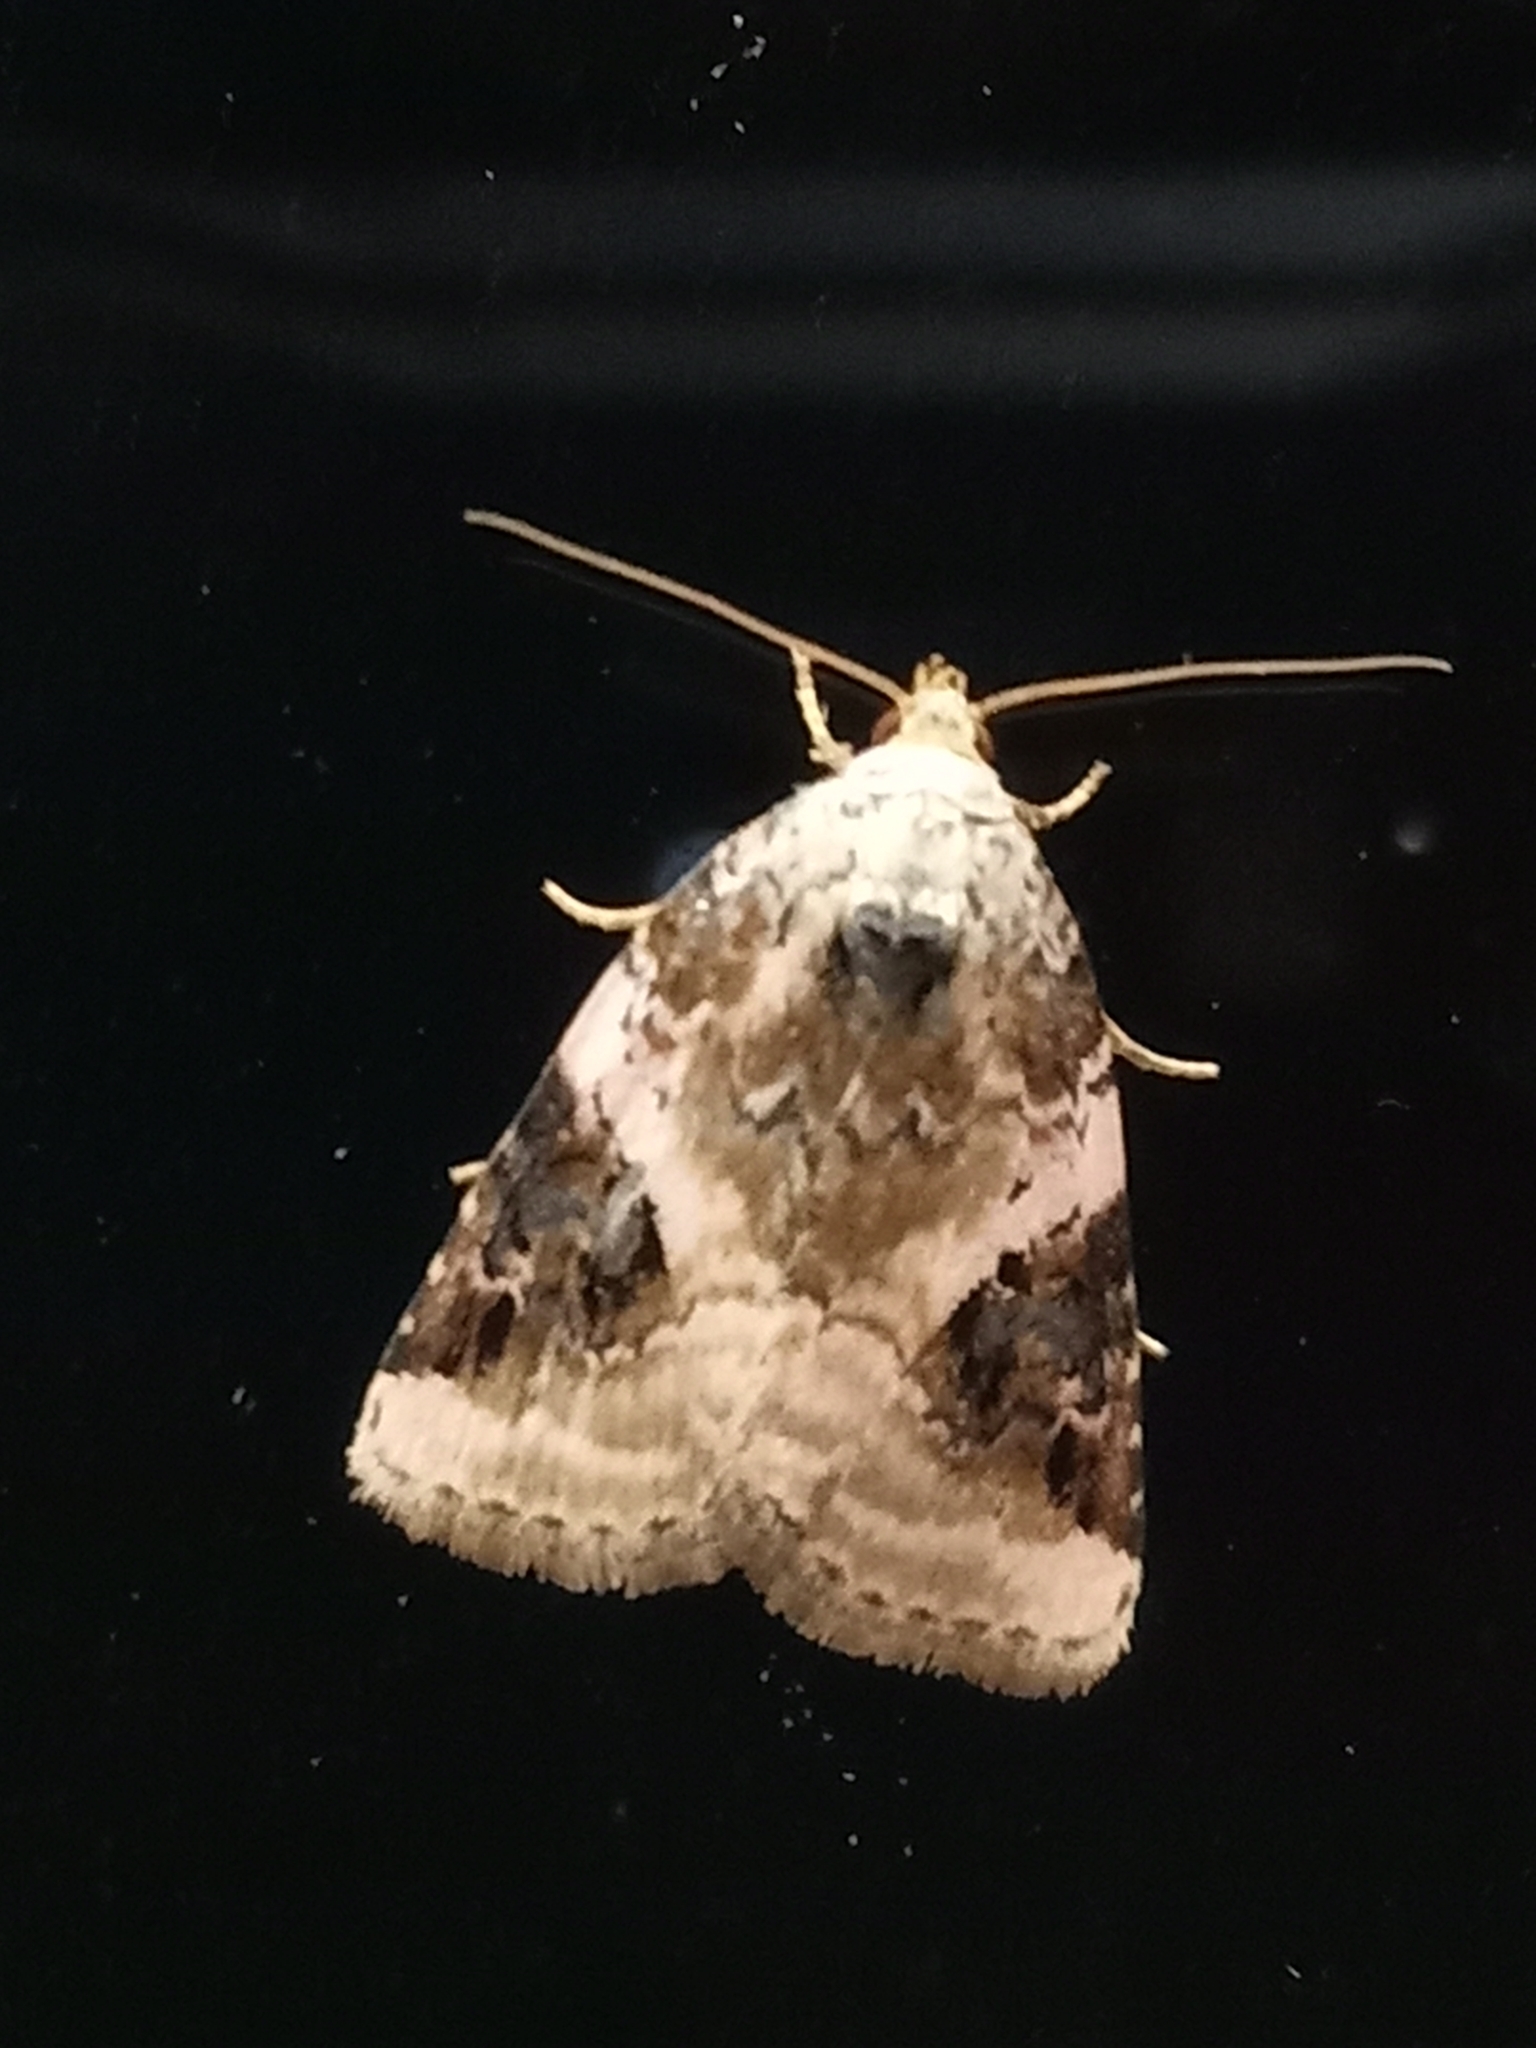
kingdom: Animalia
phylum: Arthropoda
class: Insecta
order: Lepidoptera
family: Noctuidae
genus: Pseudeustrotia
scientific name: Pseudeustrotia candidula
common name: Shining marbled
